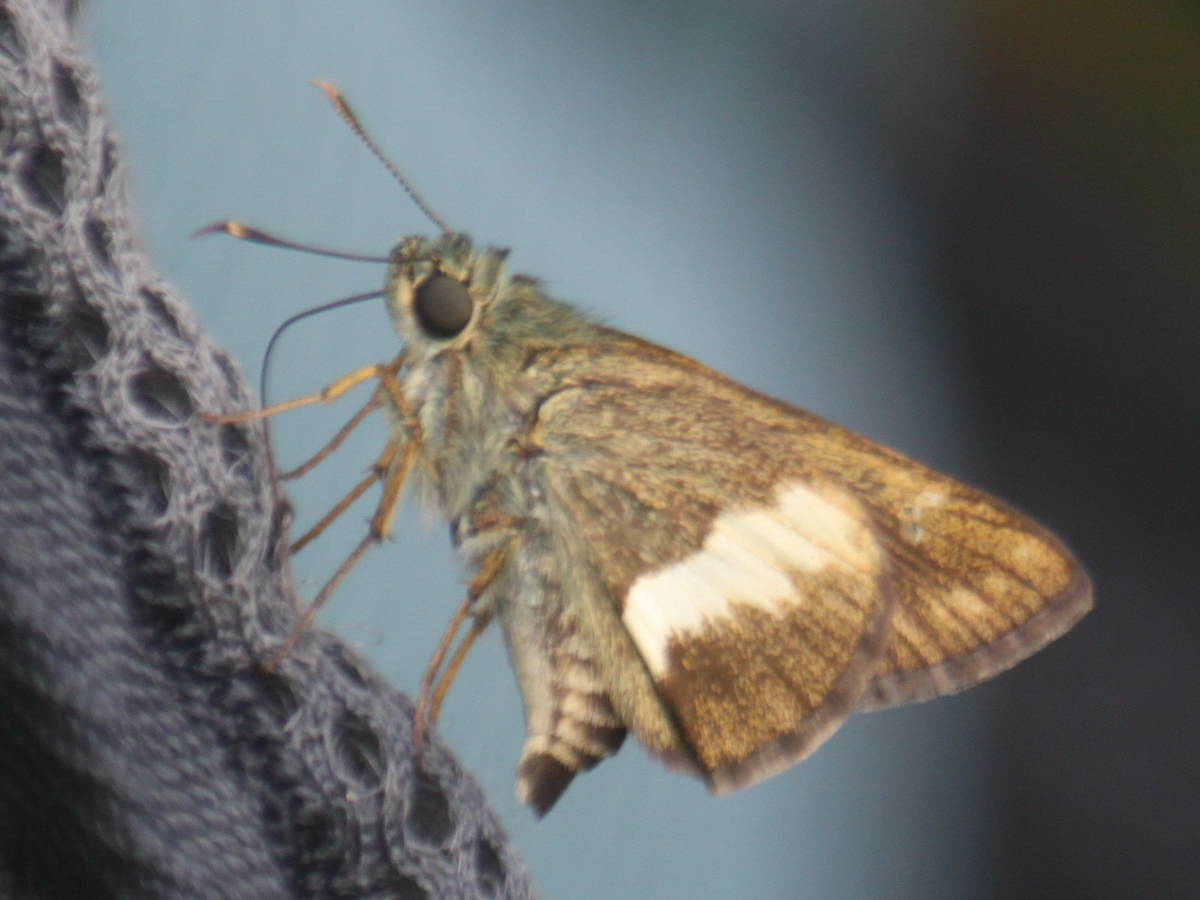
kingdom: Animalia
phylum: Arthropoda
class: Insecta
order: Lepidoptera
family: Hesperiidae
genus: Halpe
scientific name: Halpe zola
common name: Long-banded ace
